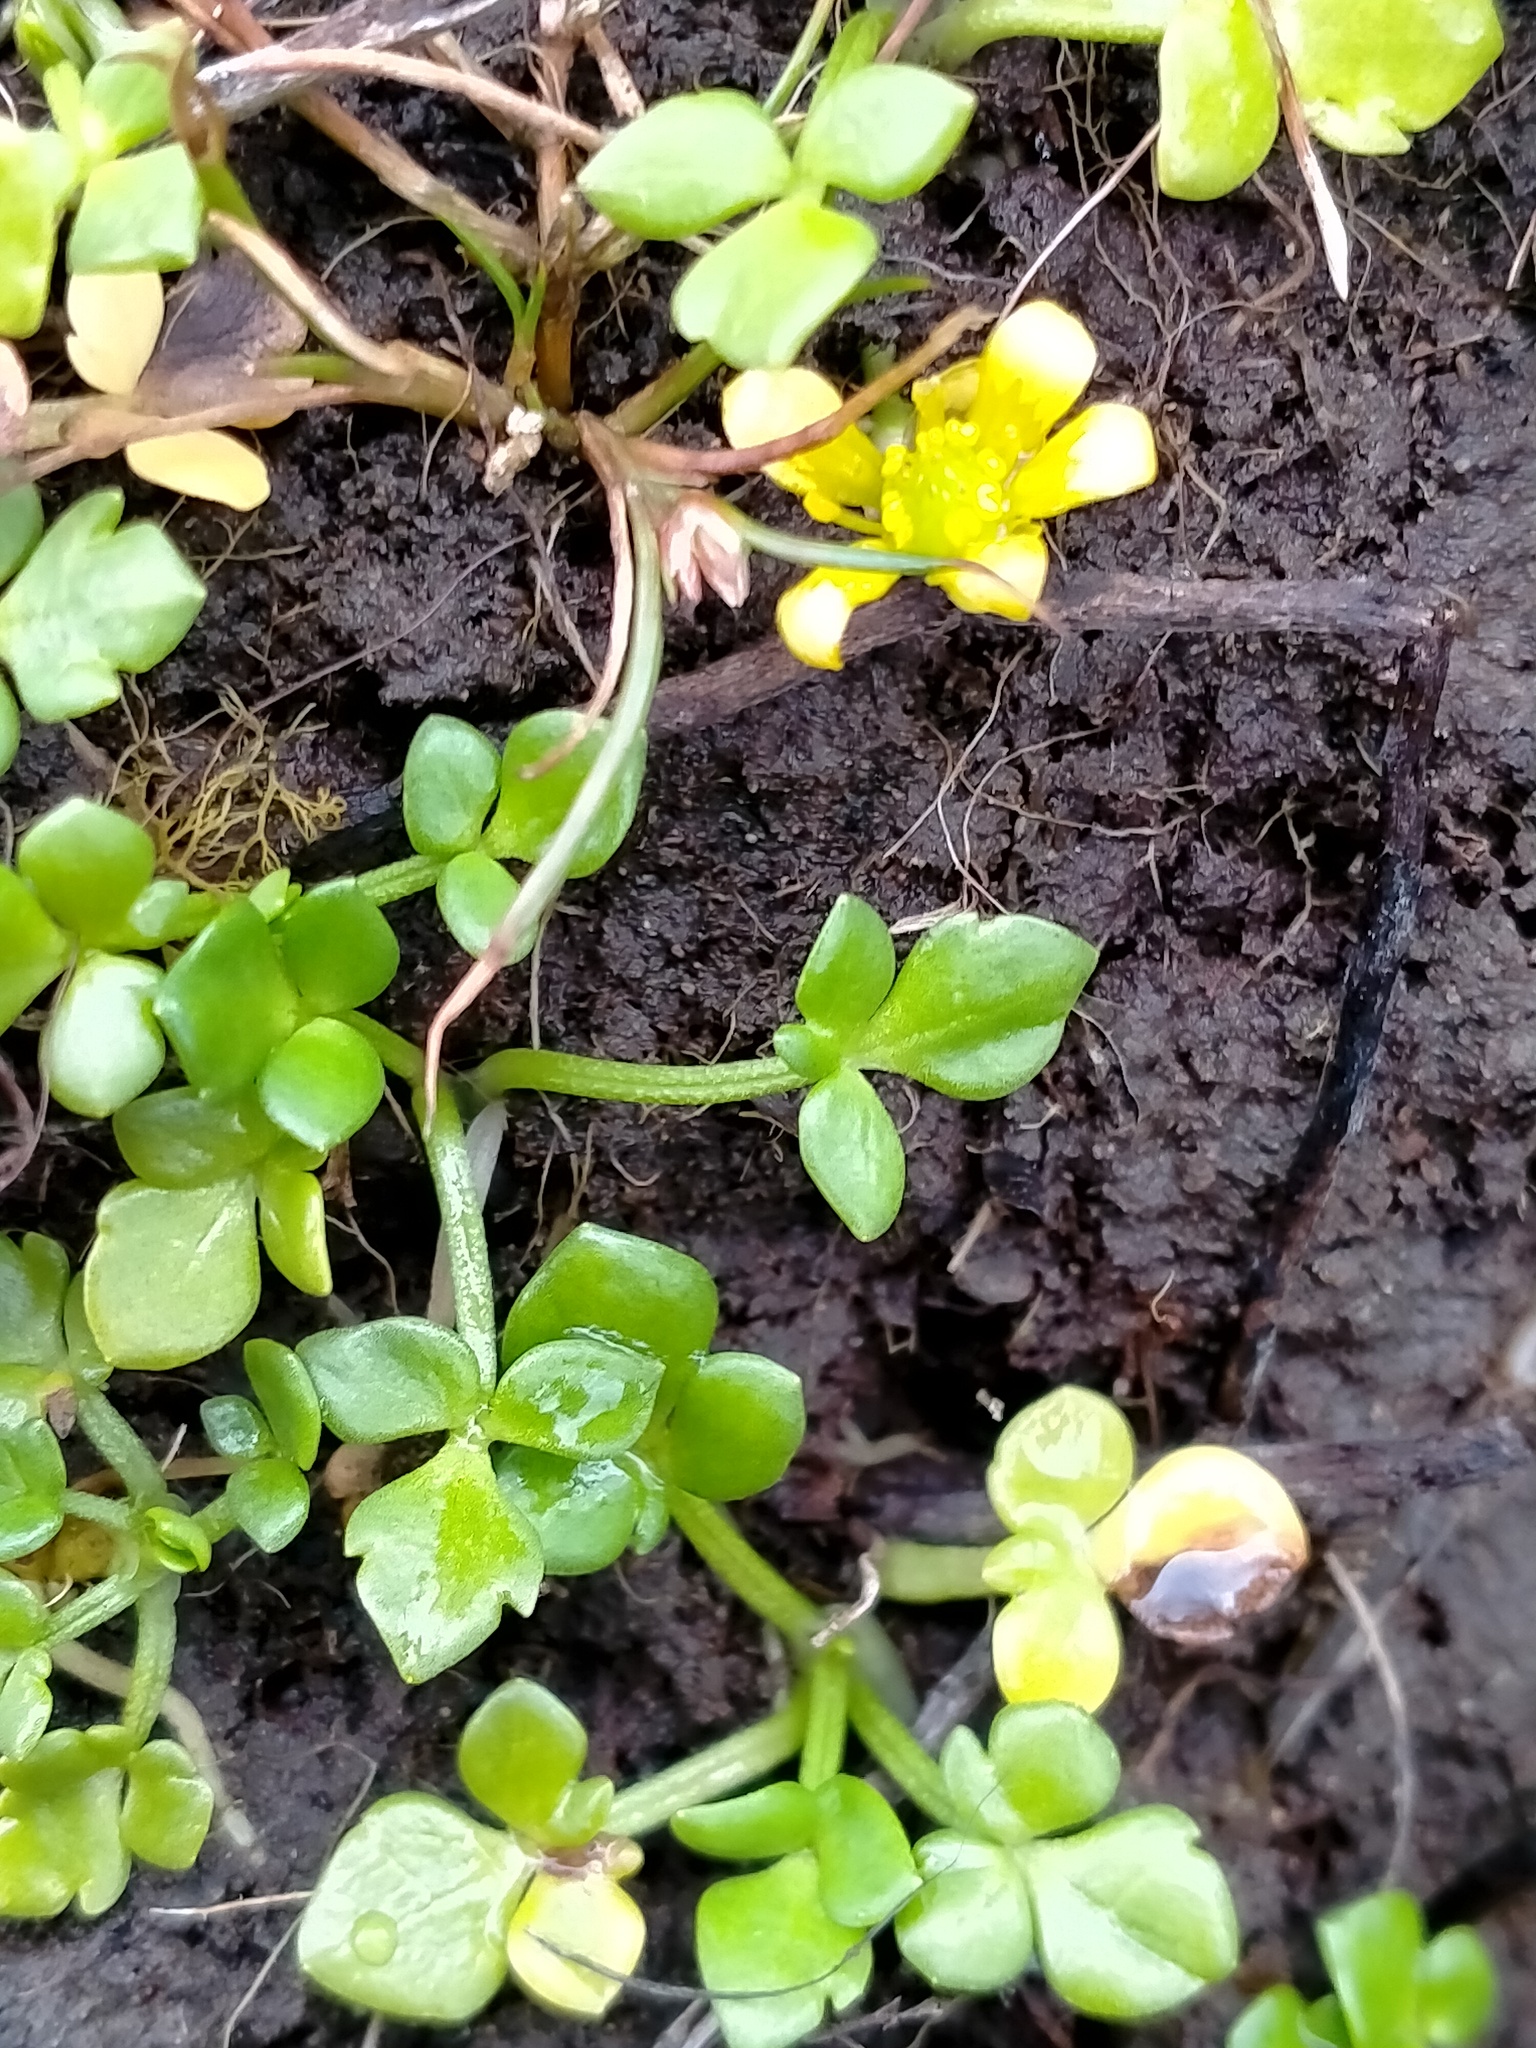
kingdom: Plantae
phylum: Tracheophyta
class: Magnoliopsida
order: Ranunculales
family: Ranunculaceae
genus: Ranunculus
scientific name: Ranunculus acaulis
